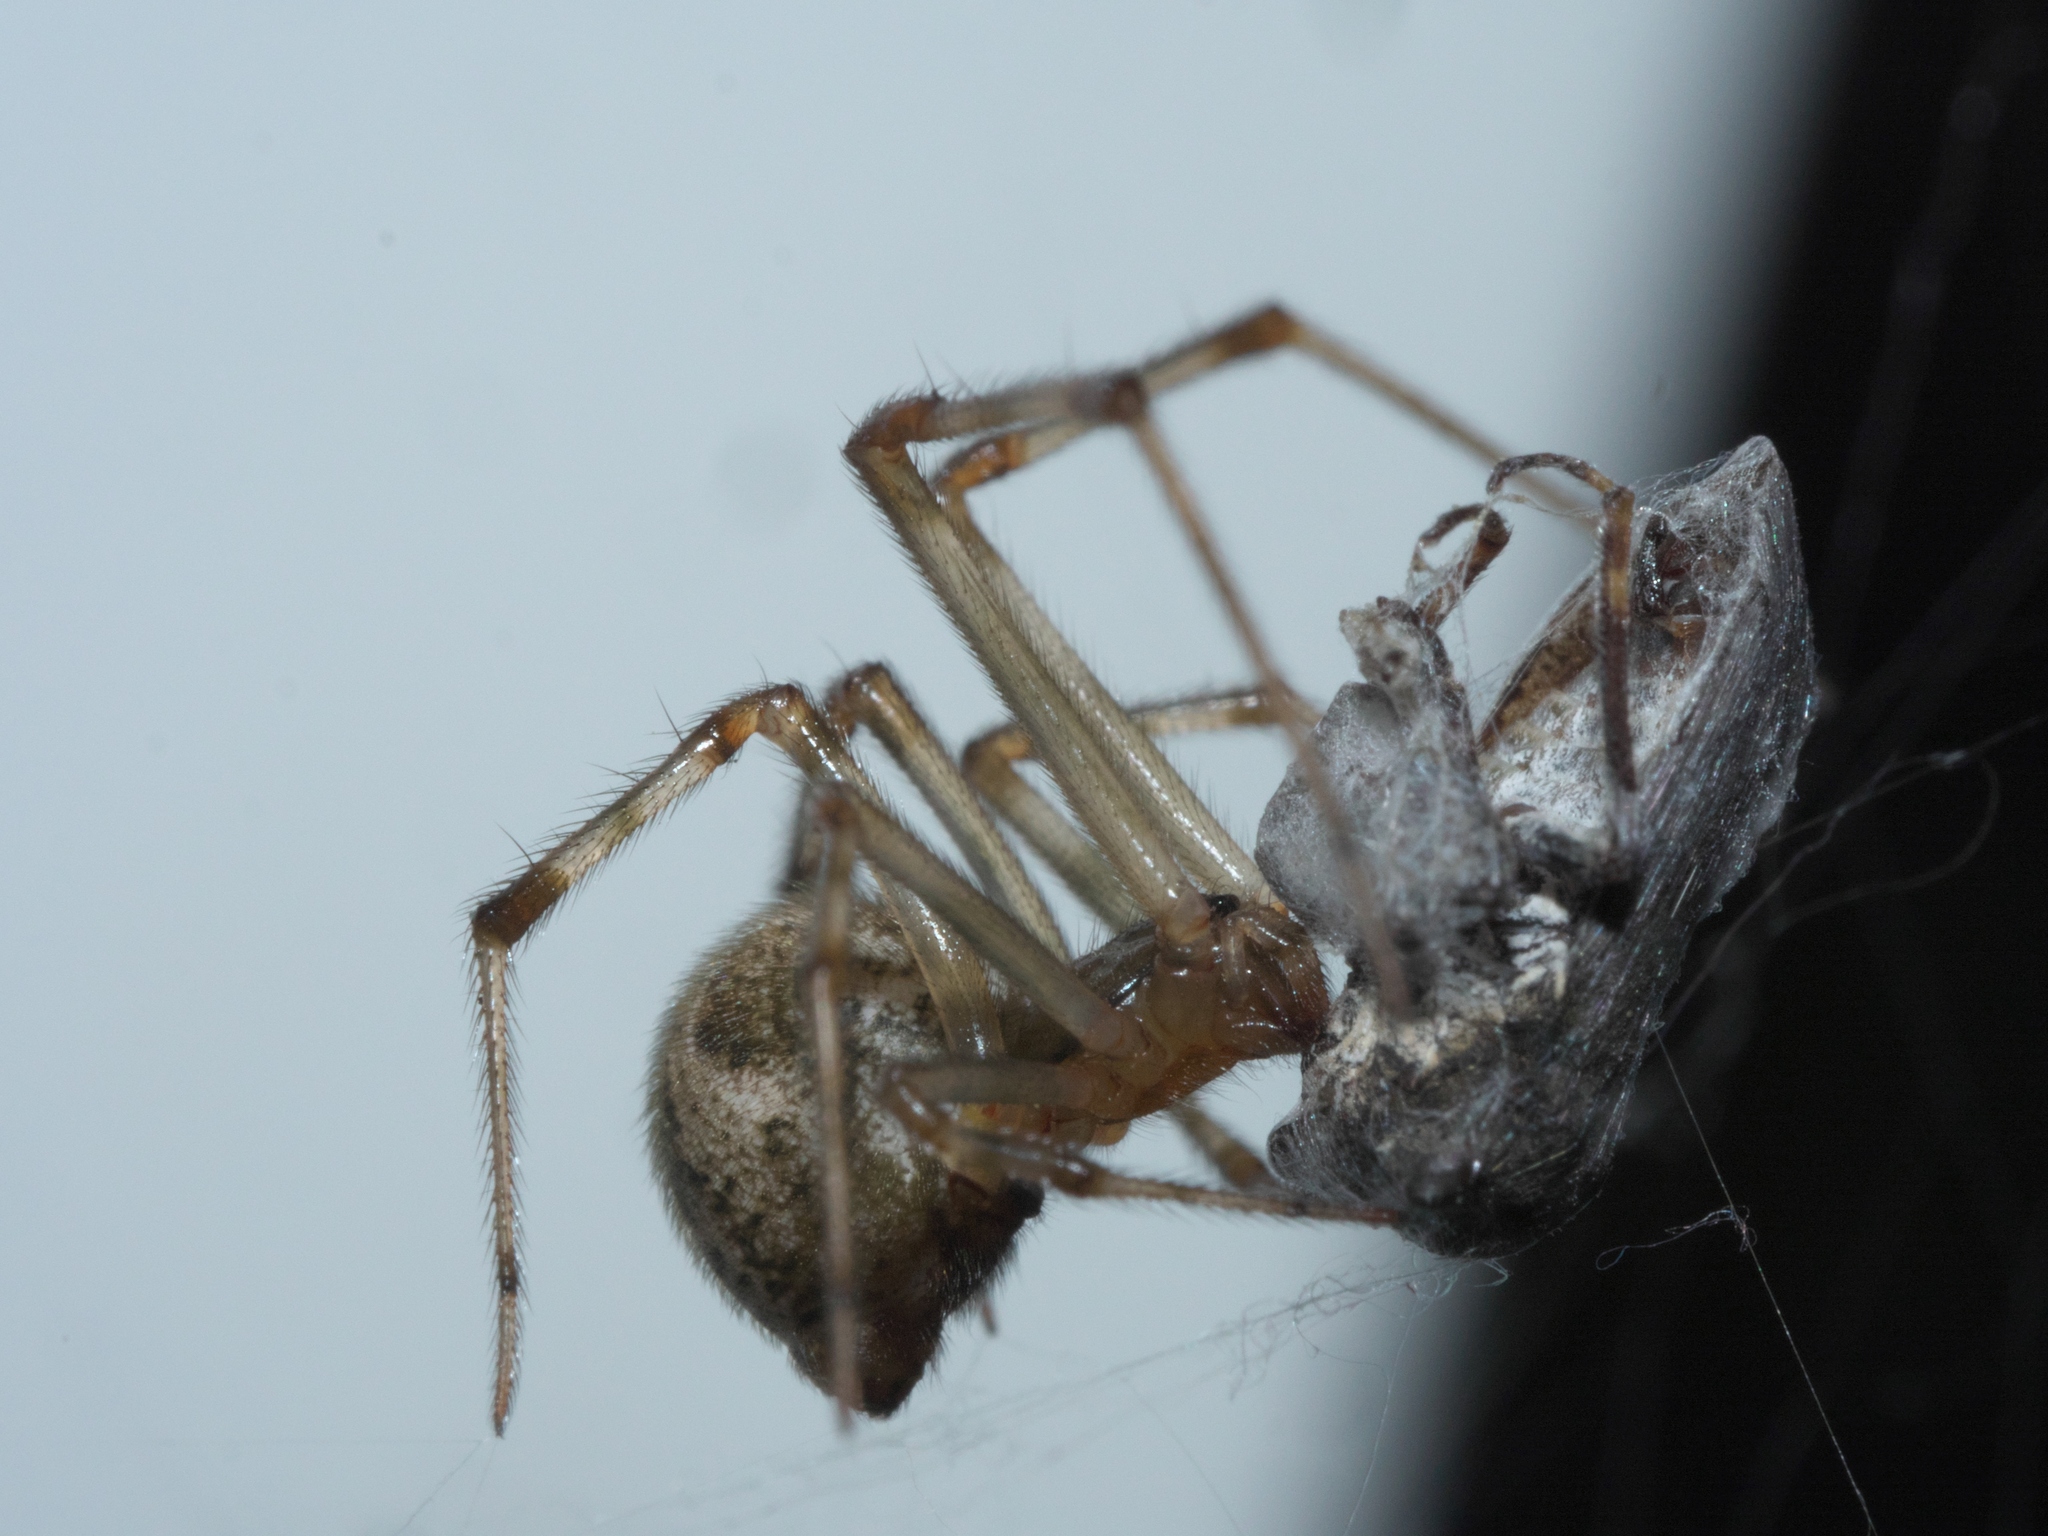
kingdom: Animalia
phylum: Arthropoda
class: Arachnida
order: Araneae
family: Theridiidae
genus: Parasteatoda
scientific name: Parasteatoda tepidariorum
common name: Common house spider
